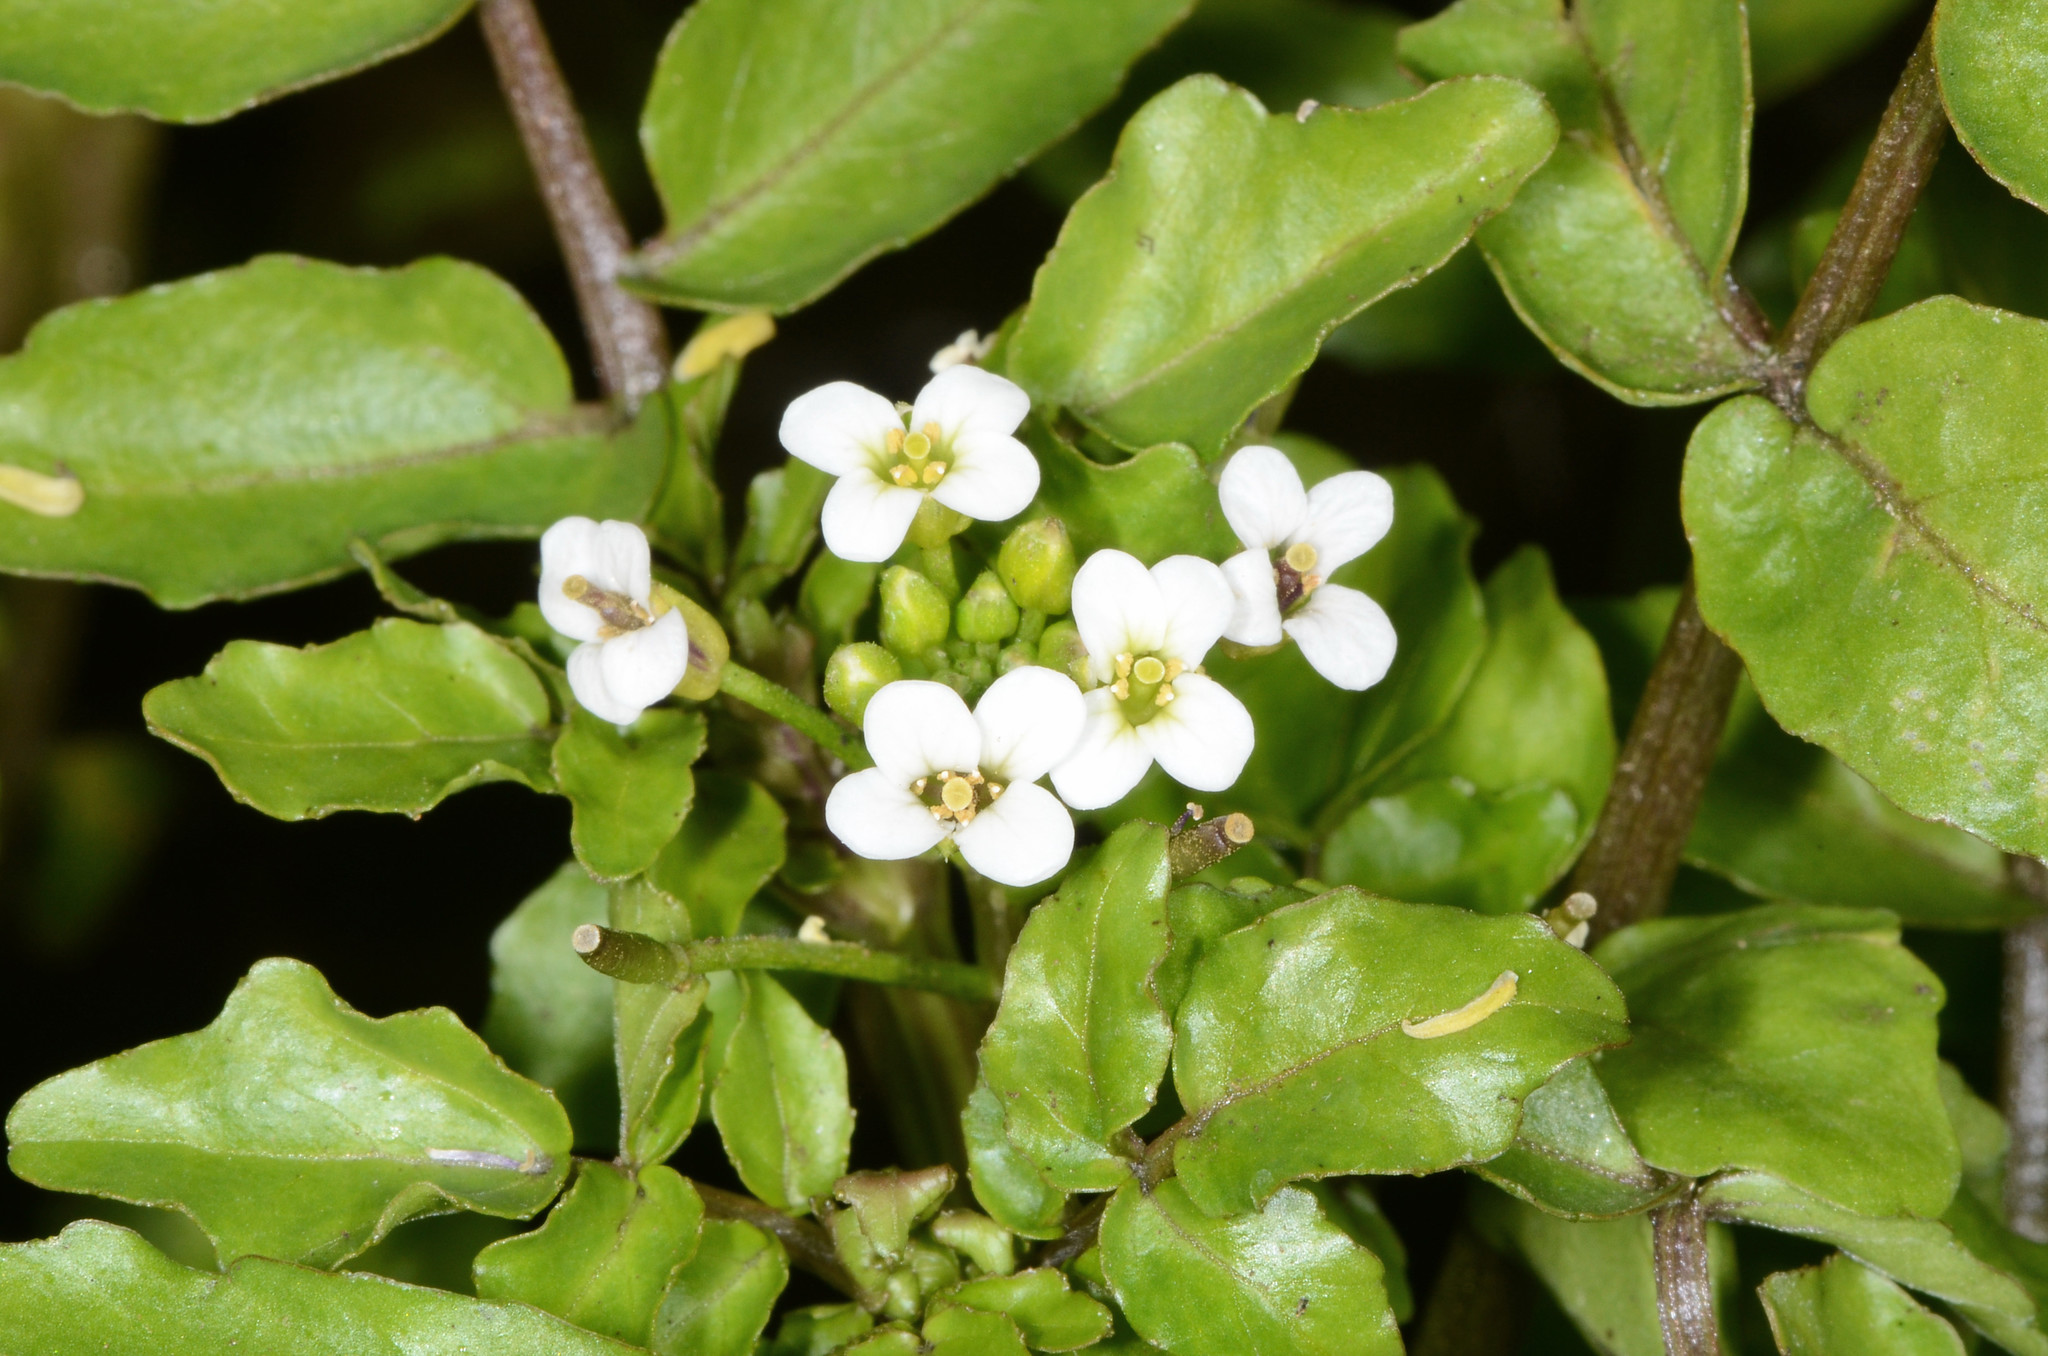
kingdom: Plantae
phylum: Tracheophyta
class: Magnoliopsida
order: Brassicales
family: Brassicaceae
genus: Nasturtium
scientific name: Nasturtium officinale
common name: Watercress
